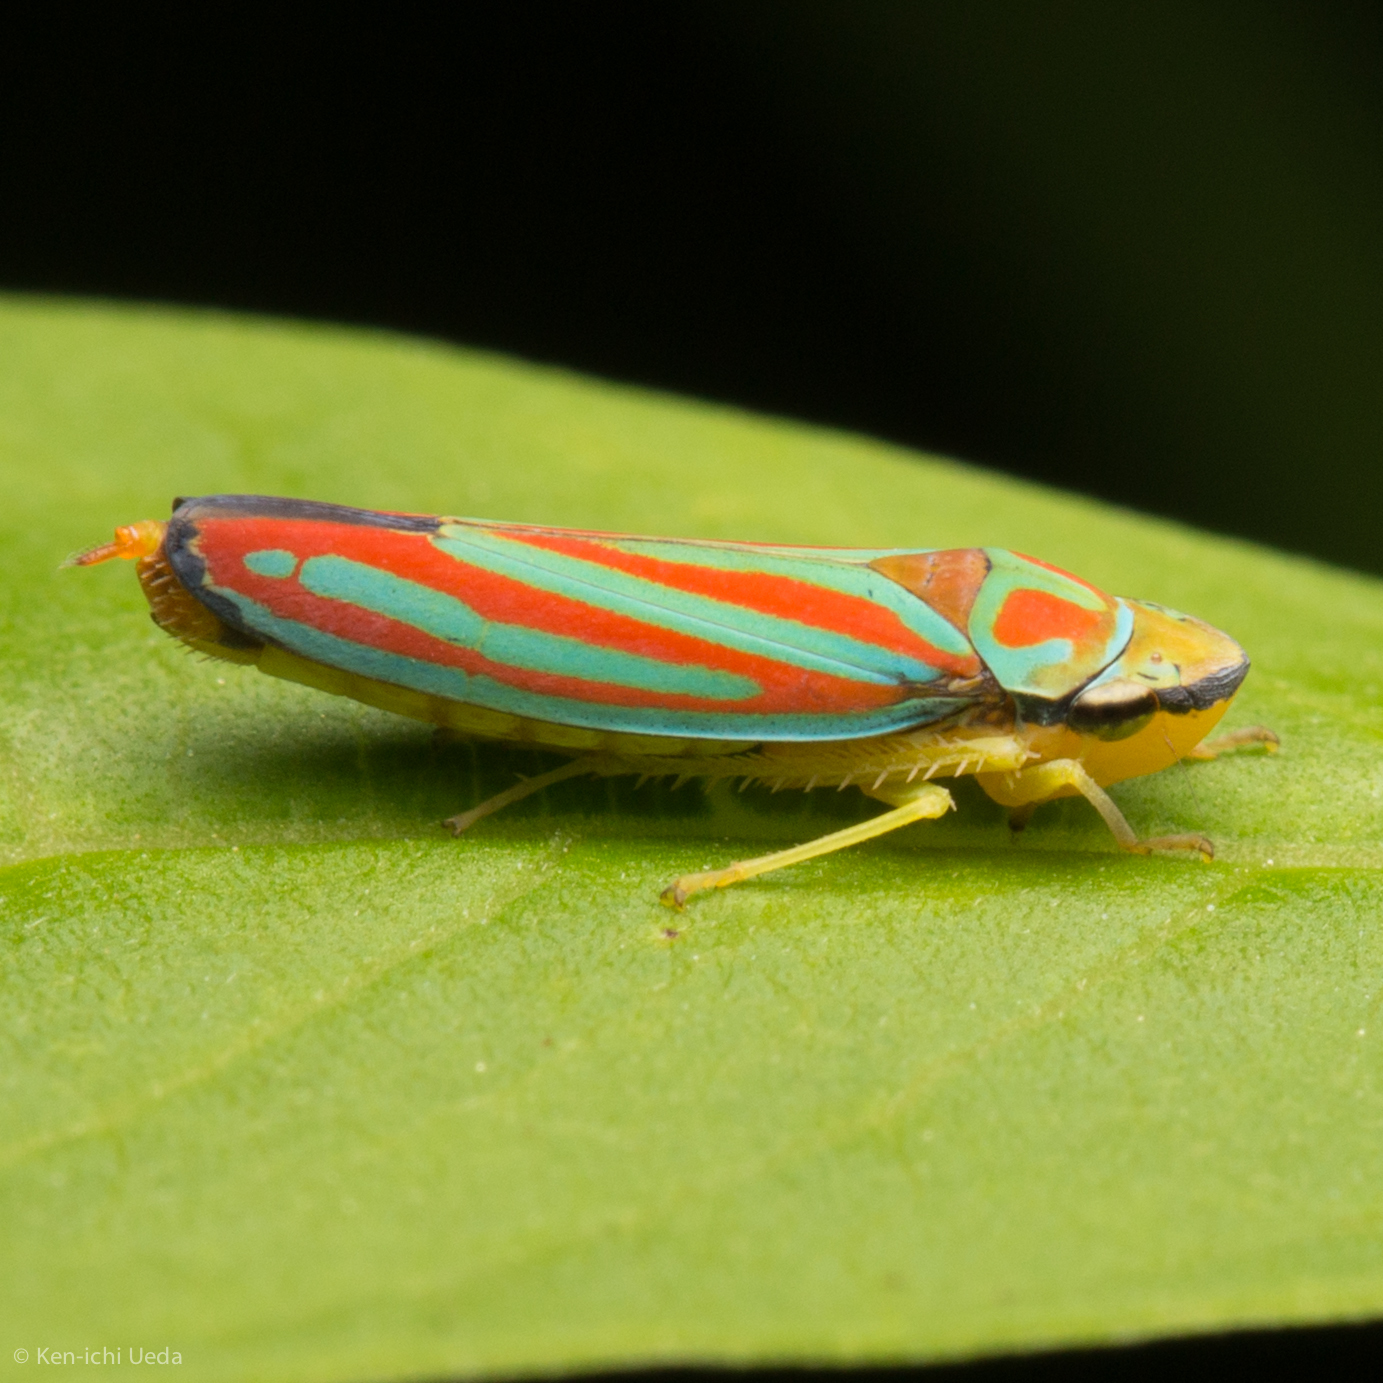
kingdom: Animalia
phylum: Arthropoda
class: Insecta
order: Hemiptera
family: Cicadellidae
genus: Graphocephala
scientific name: Graphocephala coccinea
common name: Candy-striped leafhopper
